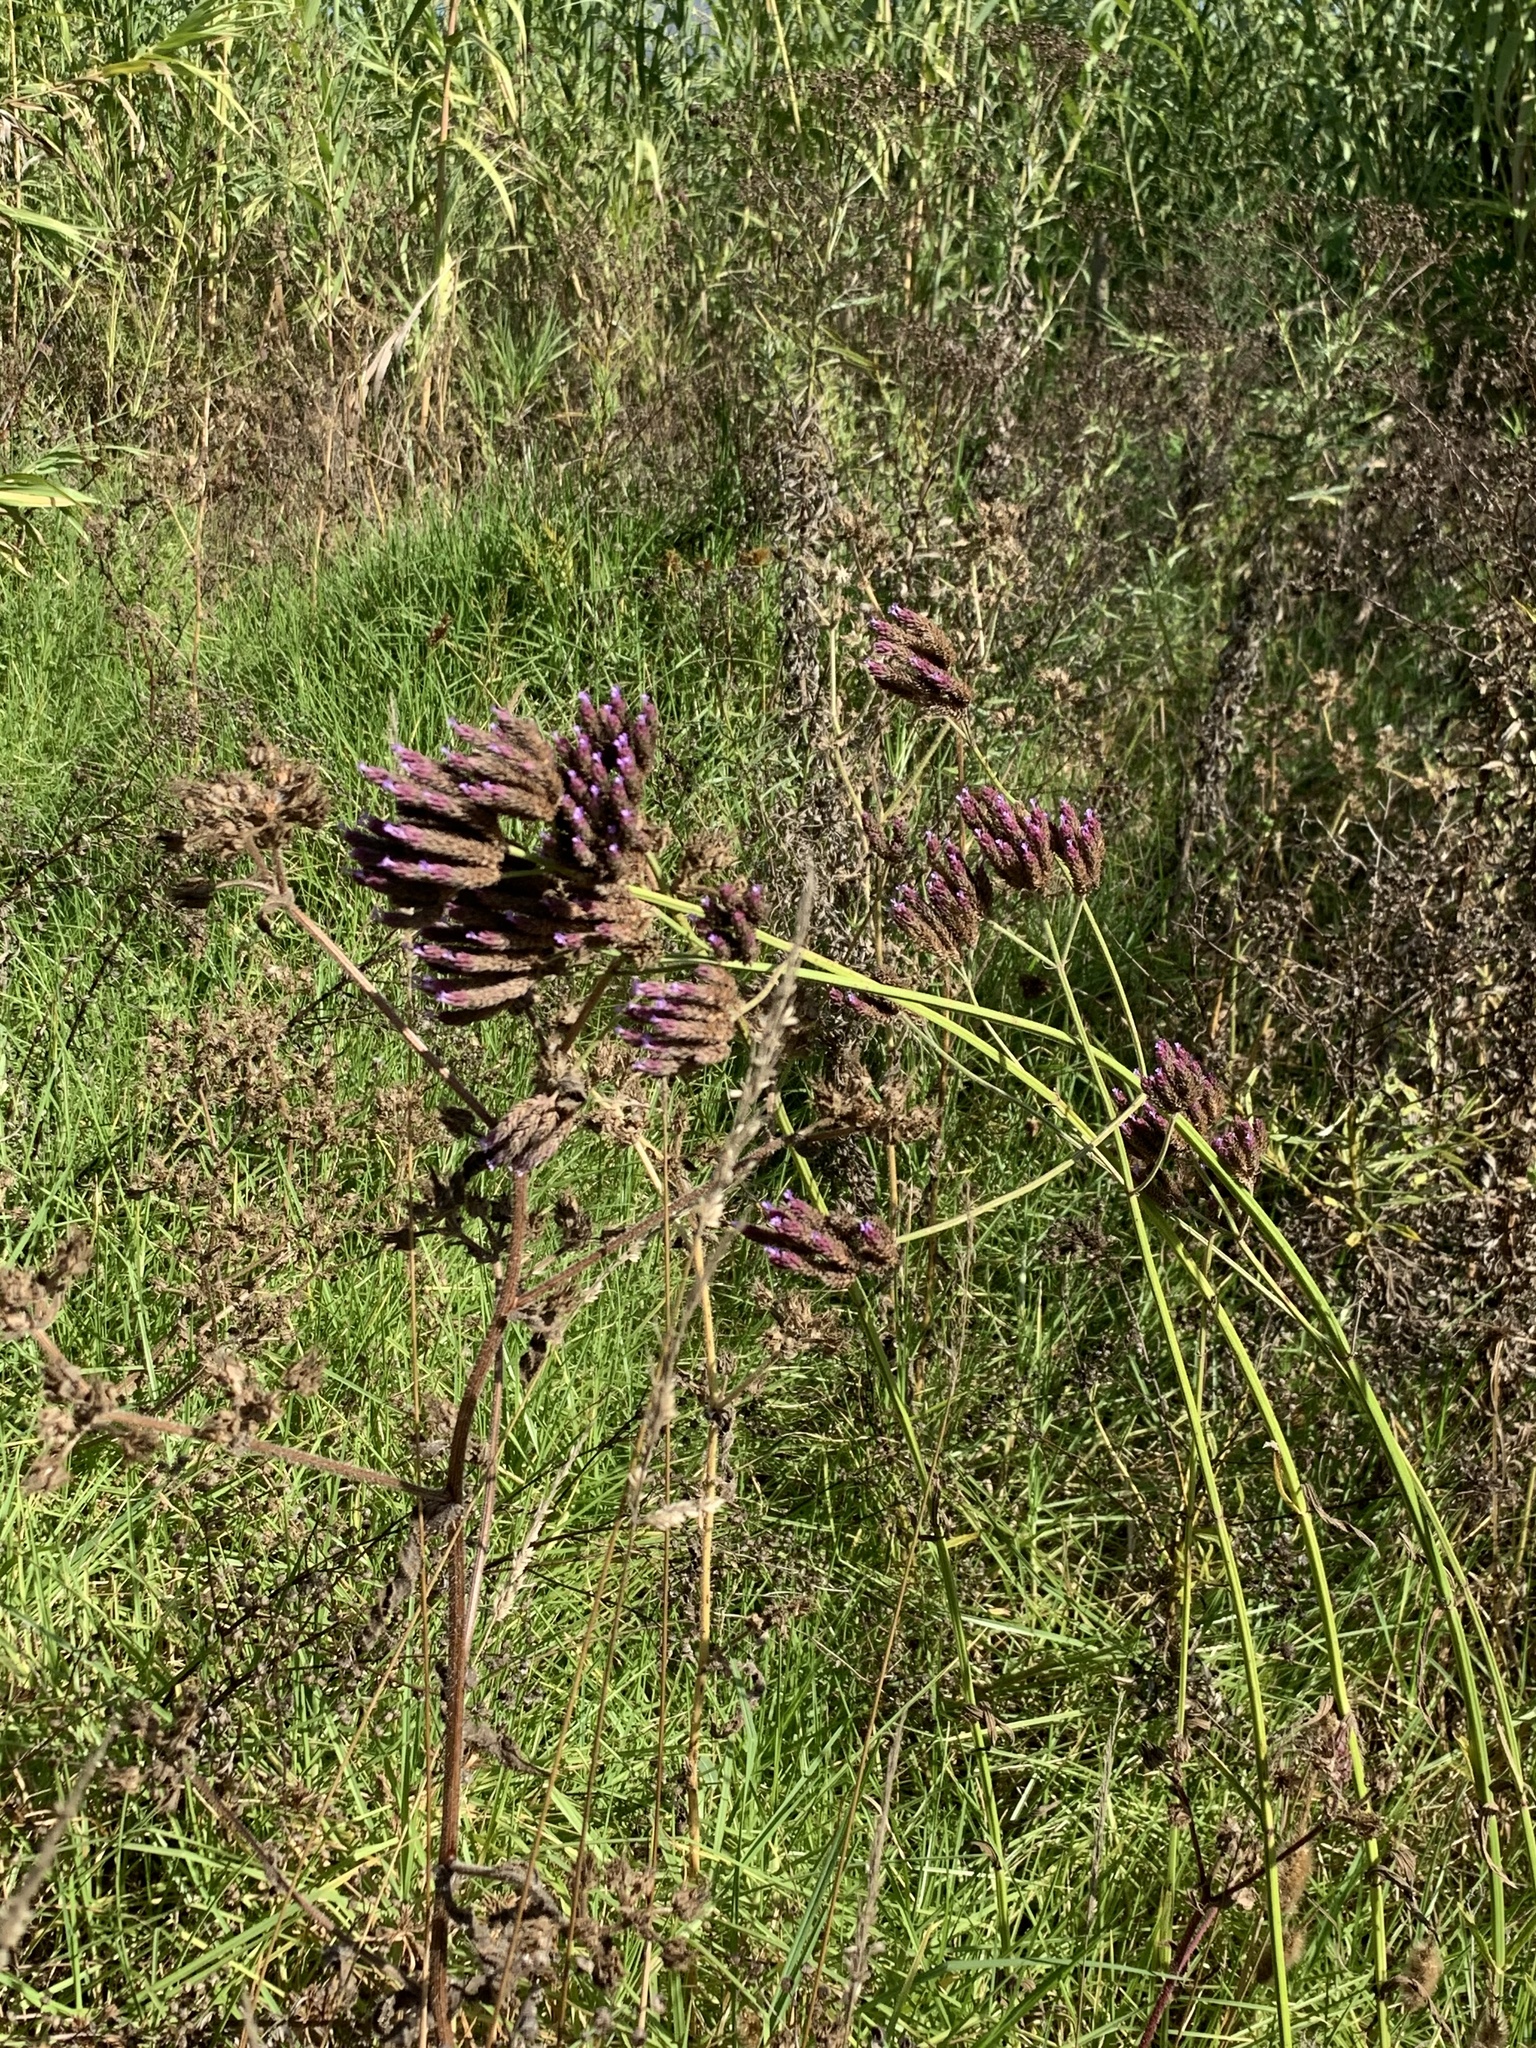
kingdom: Plantae
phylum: Tracheophyta
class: Magnoliopsida
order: Lamiales
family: Verbenaceae
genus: Verbena
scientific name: Verbena bonariensis
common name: Purpletop vervain
